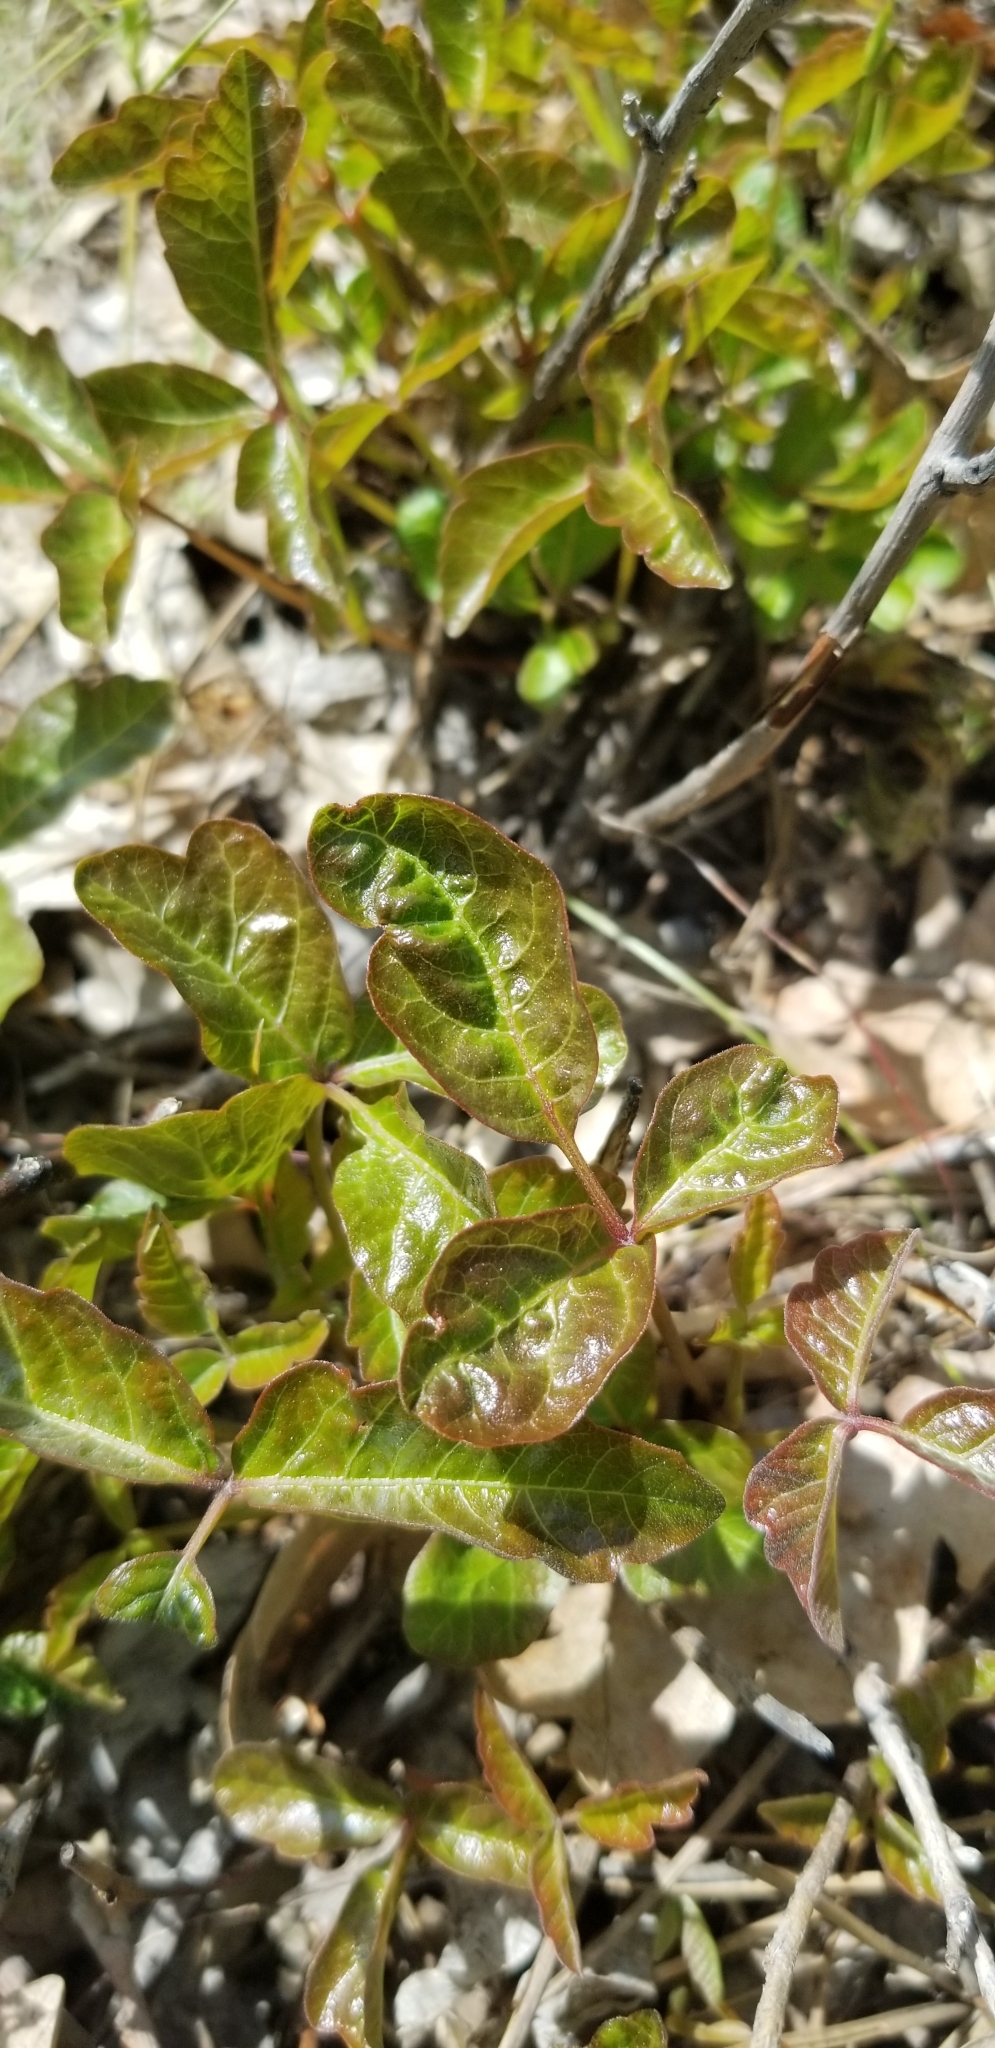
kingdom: Plantae
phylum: Tracheophyta
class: Magnoliopsida
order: Sapindales
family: Anacardiaceae
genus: Toxicodendron
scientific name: Toxicodendron diversilobum
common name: Pacific poison-oak
